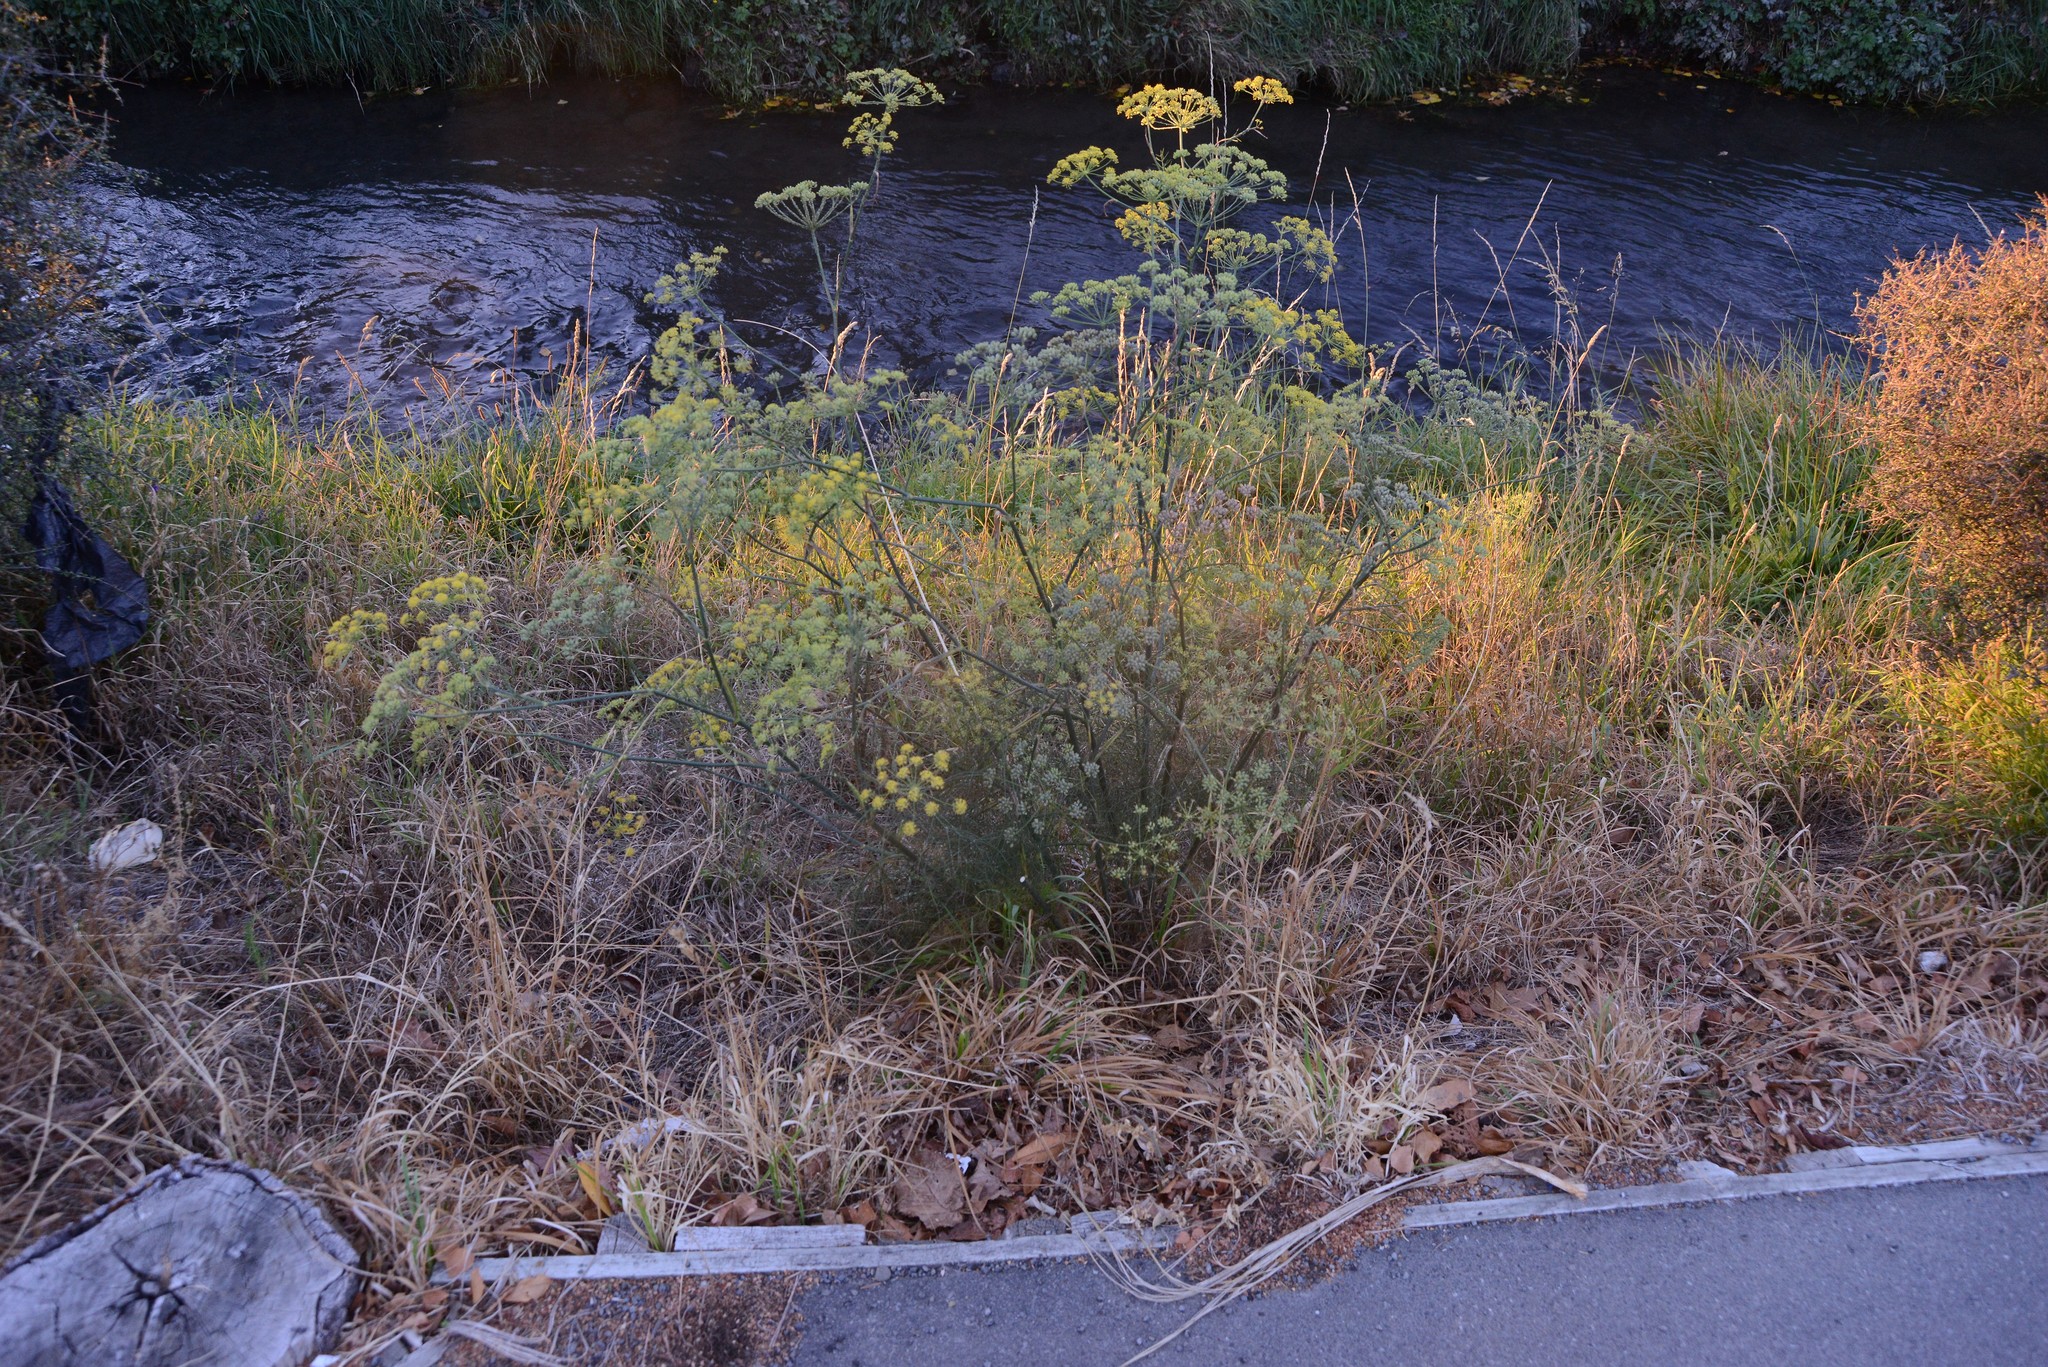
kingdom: Plantae
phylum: Tracheophyta
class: Magnoliopsida
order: Apiales
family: Apiaceae
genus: Foeniculum
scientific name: Foeniculum vulgare
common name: Fennel
